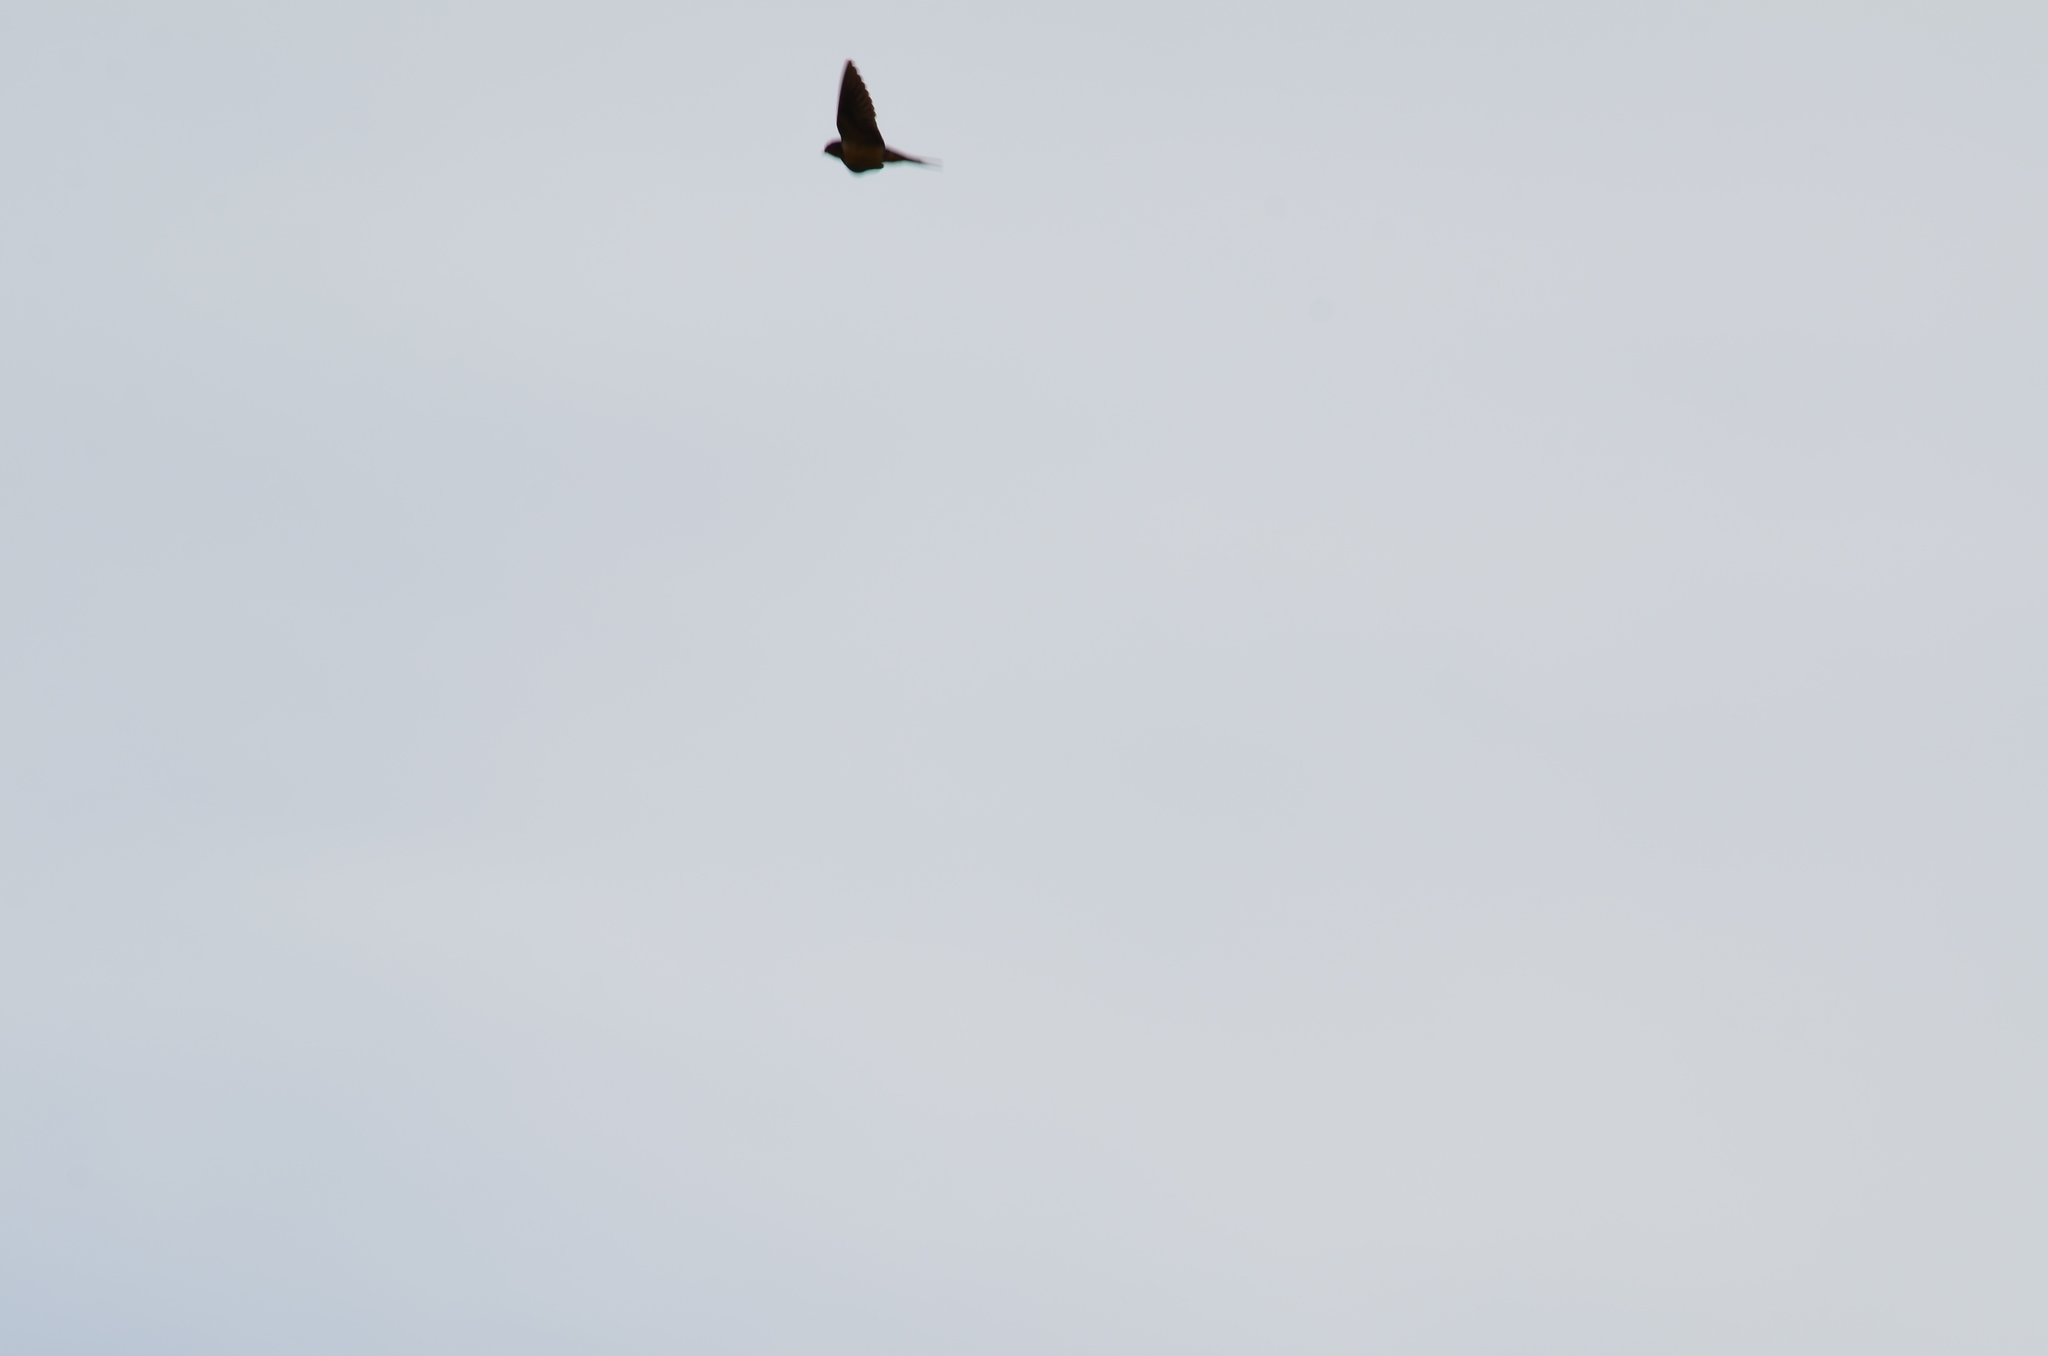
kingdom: Animalia
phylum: Chordata
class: Aves
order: Passeriformes
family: Hirundinidae
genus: Hirundo
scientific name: Hirundo rustica
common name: Barn swallow
